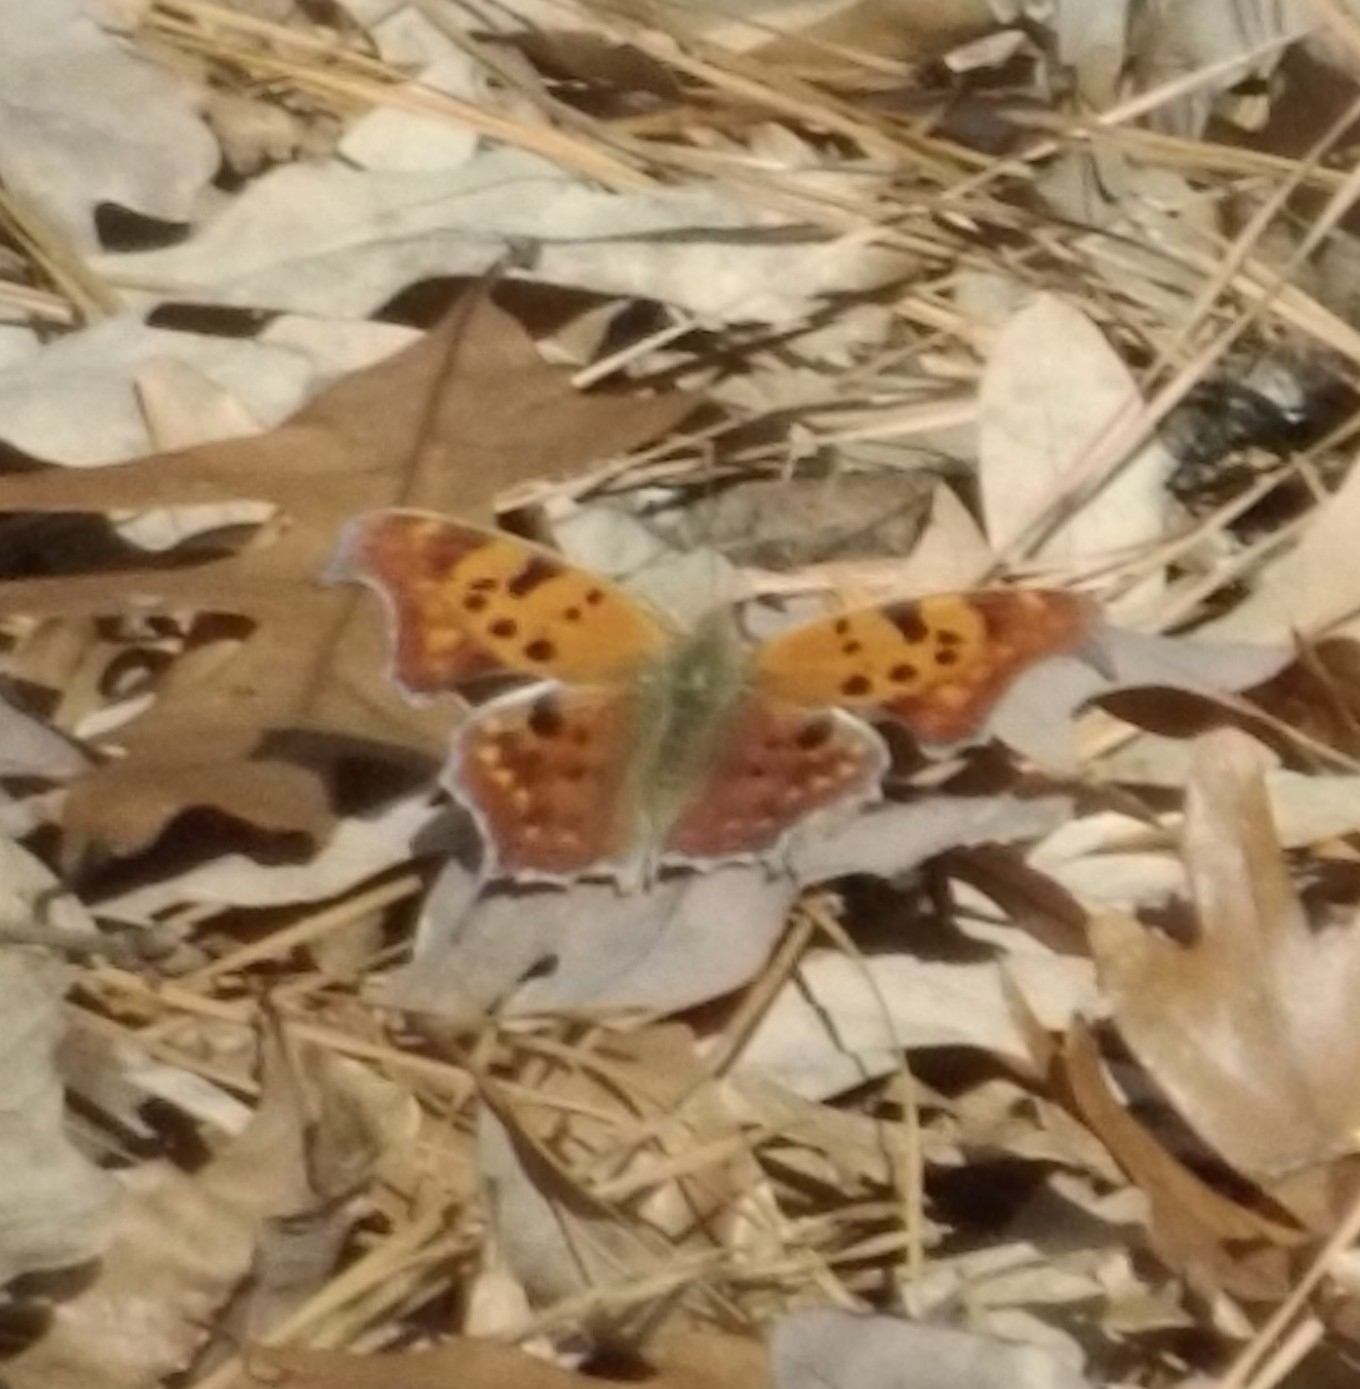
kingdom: Animalia
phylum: Arthropoda
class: Insecta
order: Lepidoptera
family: Nymphalidae
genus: Polygonia
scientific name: Polygonia interrogationis
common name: Question mark
